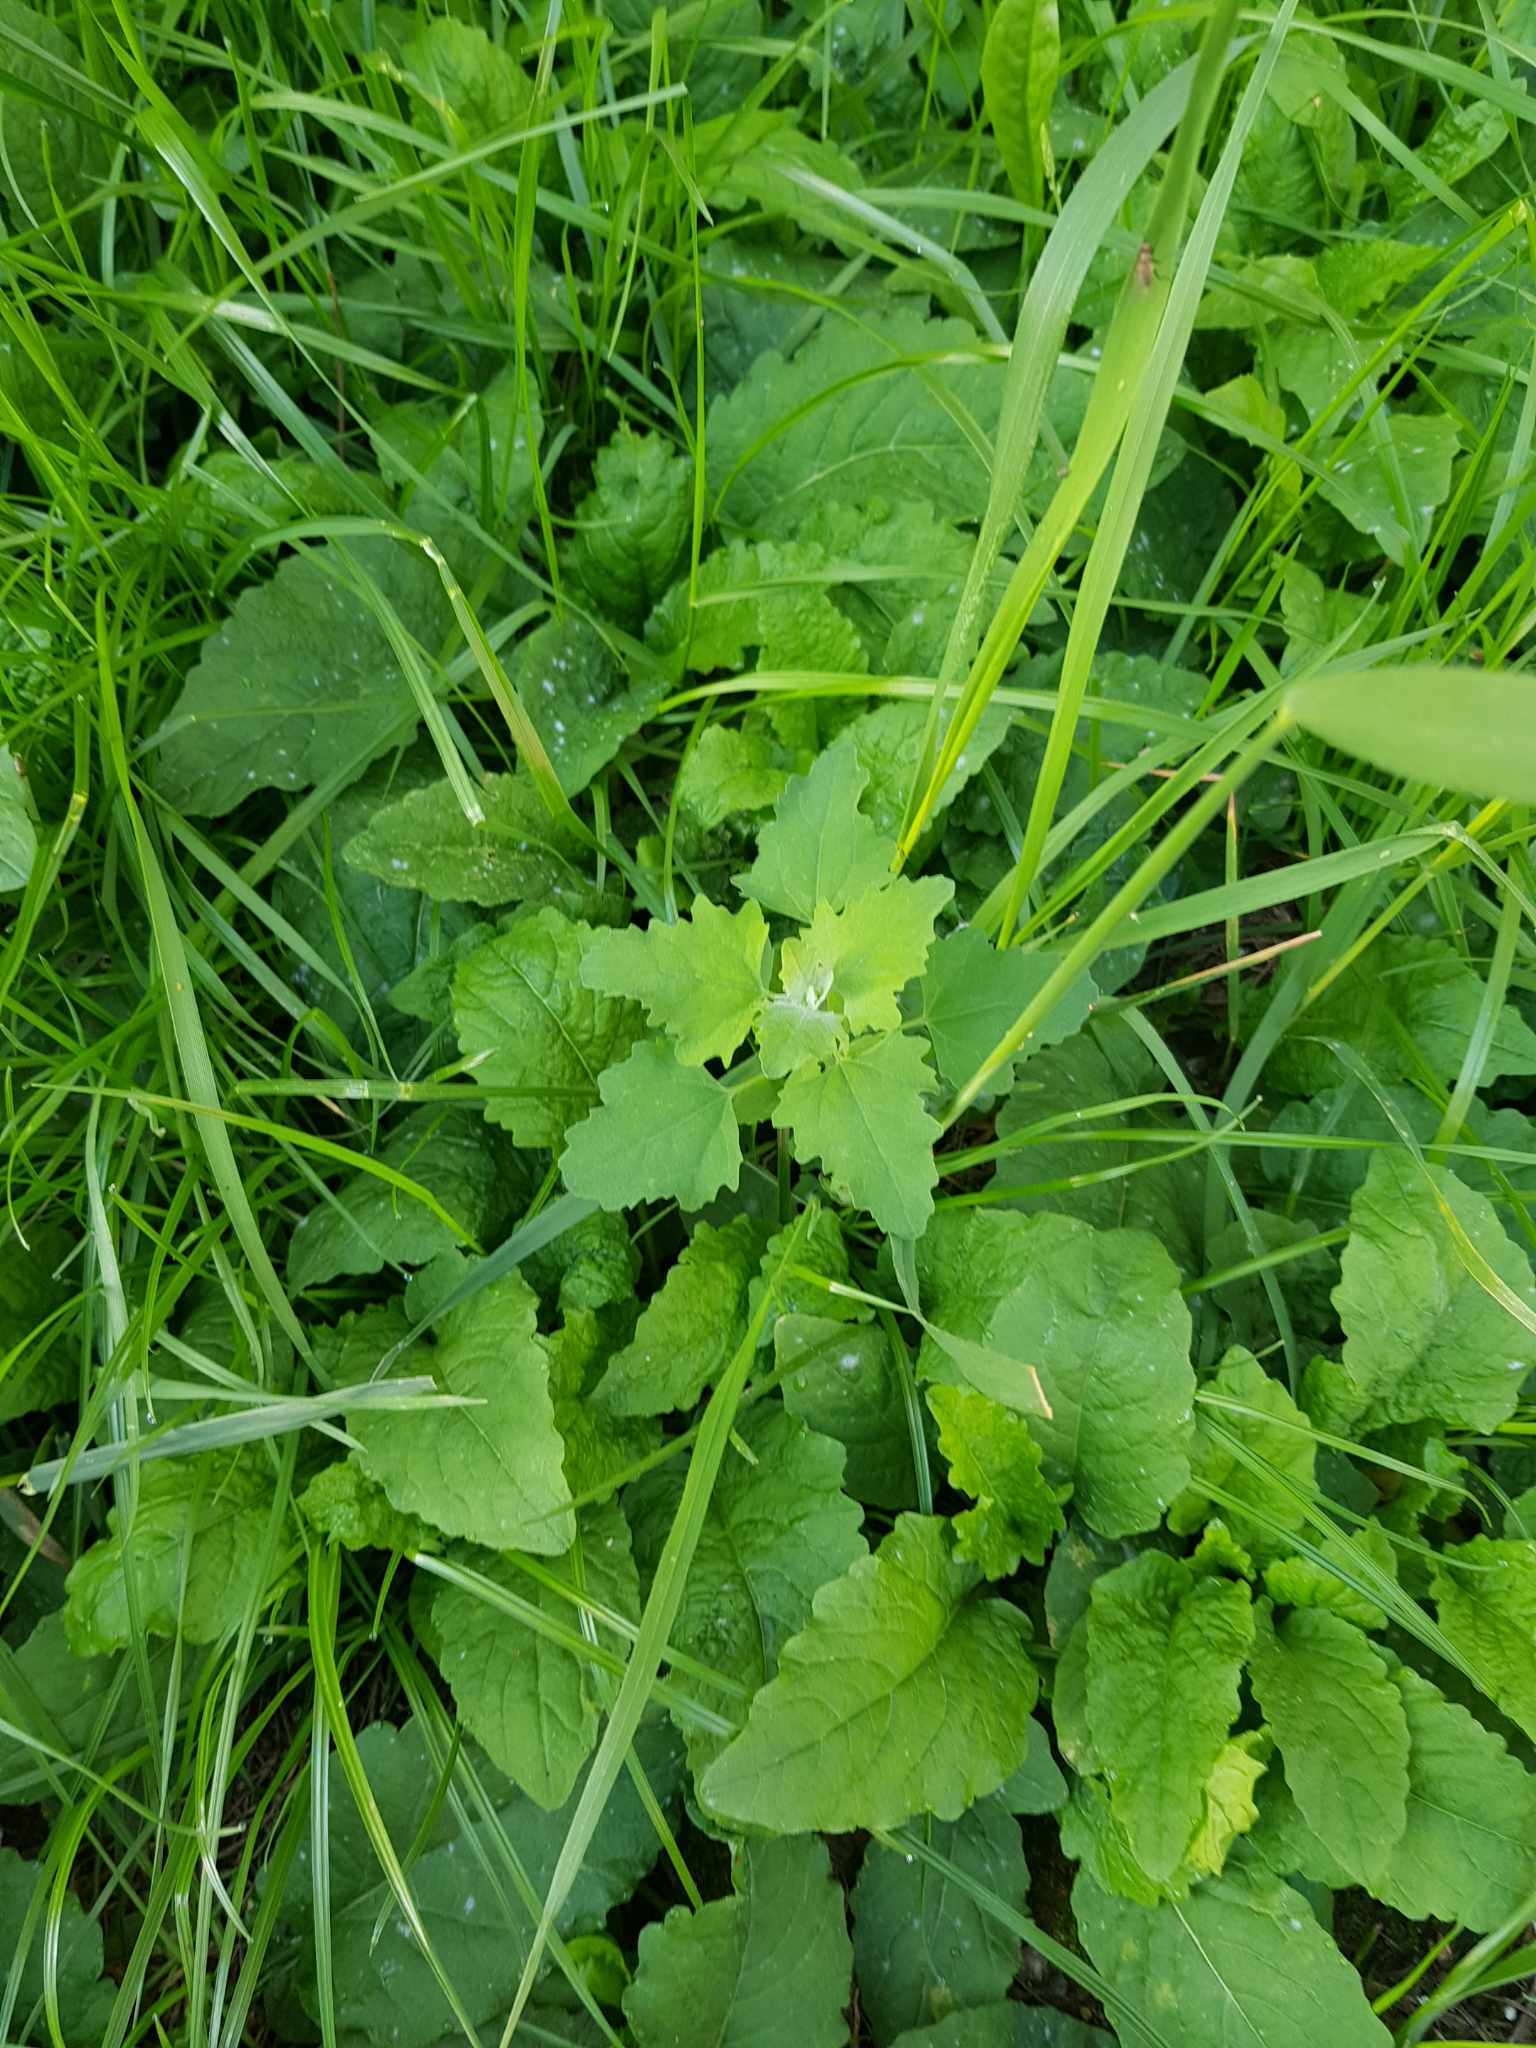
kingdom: Plantae
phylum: Tracheophyta
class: Magnoliopsida
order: Caryophyllales
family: Amaranthaceae
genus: Chenopodium
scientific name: Chenopodium album
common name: Fat-hen
